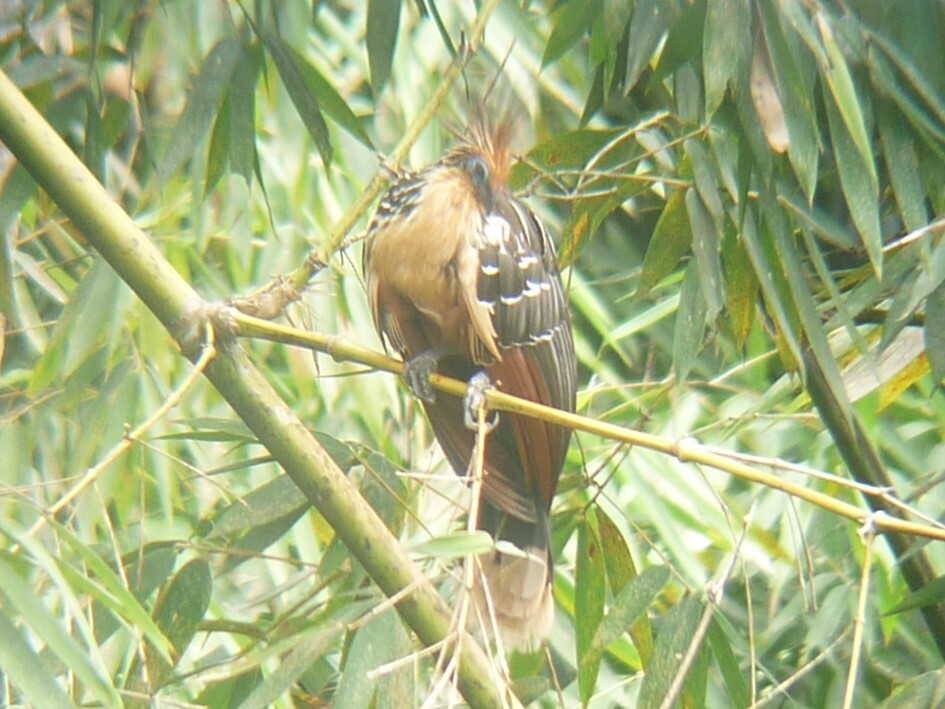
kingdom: Animalia
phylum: Chordata
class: Aves
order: Opisthocomiformes
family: Opisthocomidae
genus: Opisthocomus
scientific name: Opisthocomus hoazin
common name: Hoatzin
